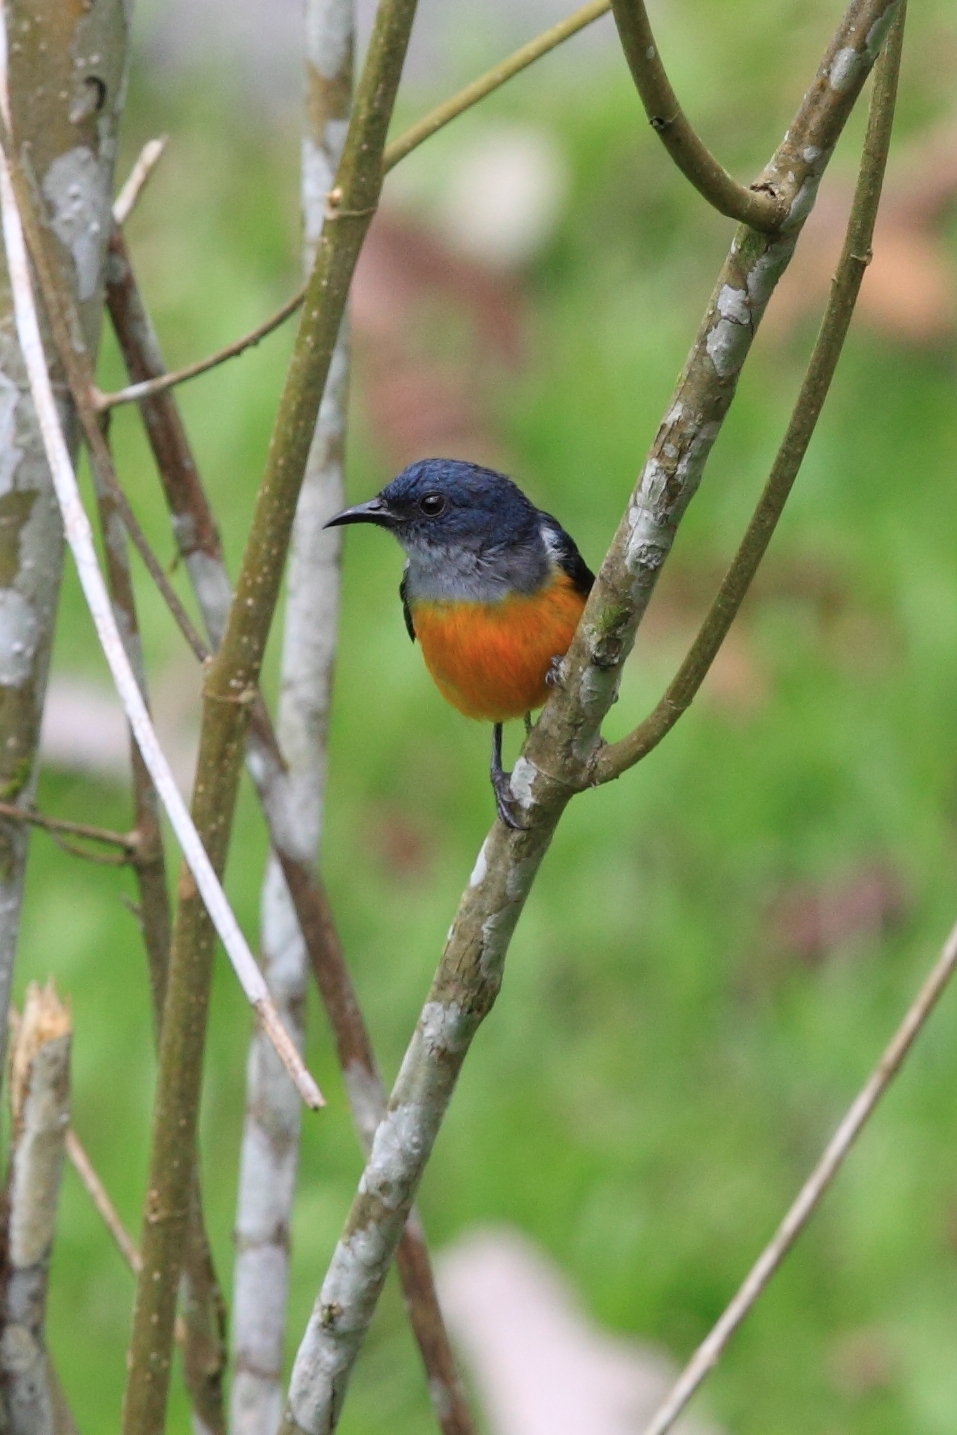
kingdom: Animalia
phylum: Chordata
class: Aves
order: Passeriformes
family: Dicaeidae
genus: Dicaeum
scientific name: Dicaeum trigonostigma
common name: Orange-bellied flowerpecker
